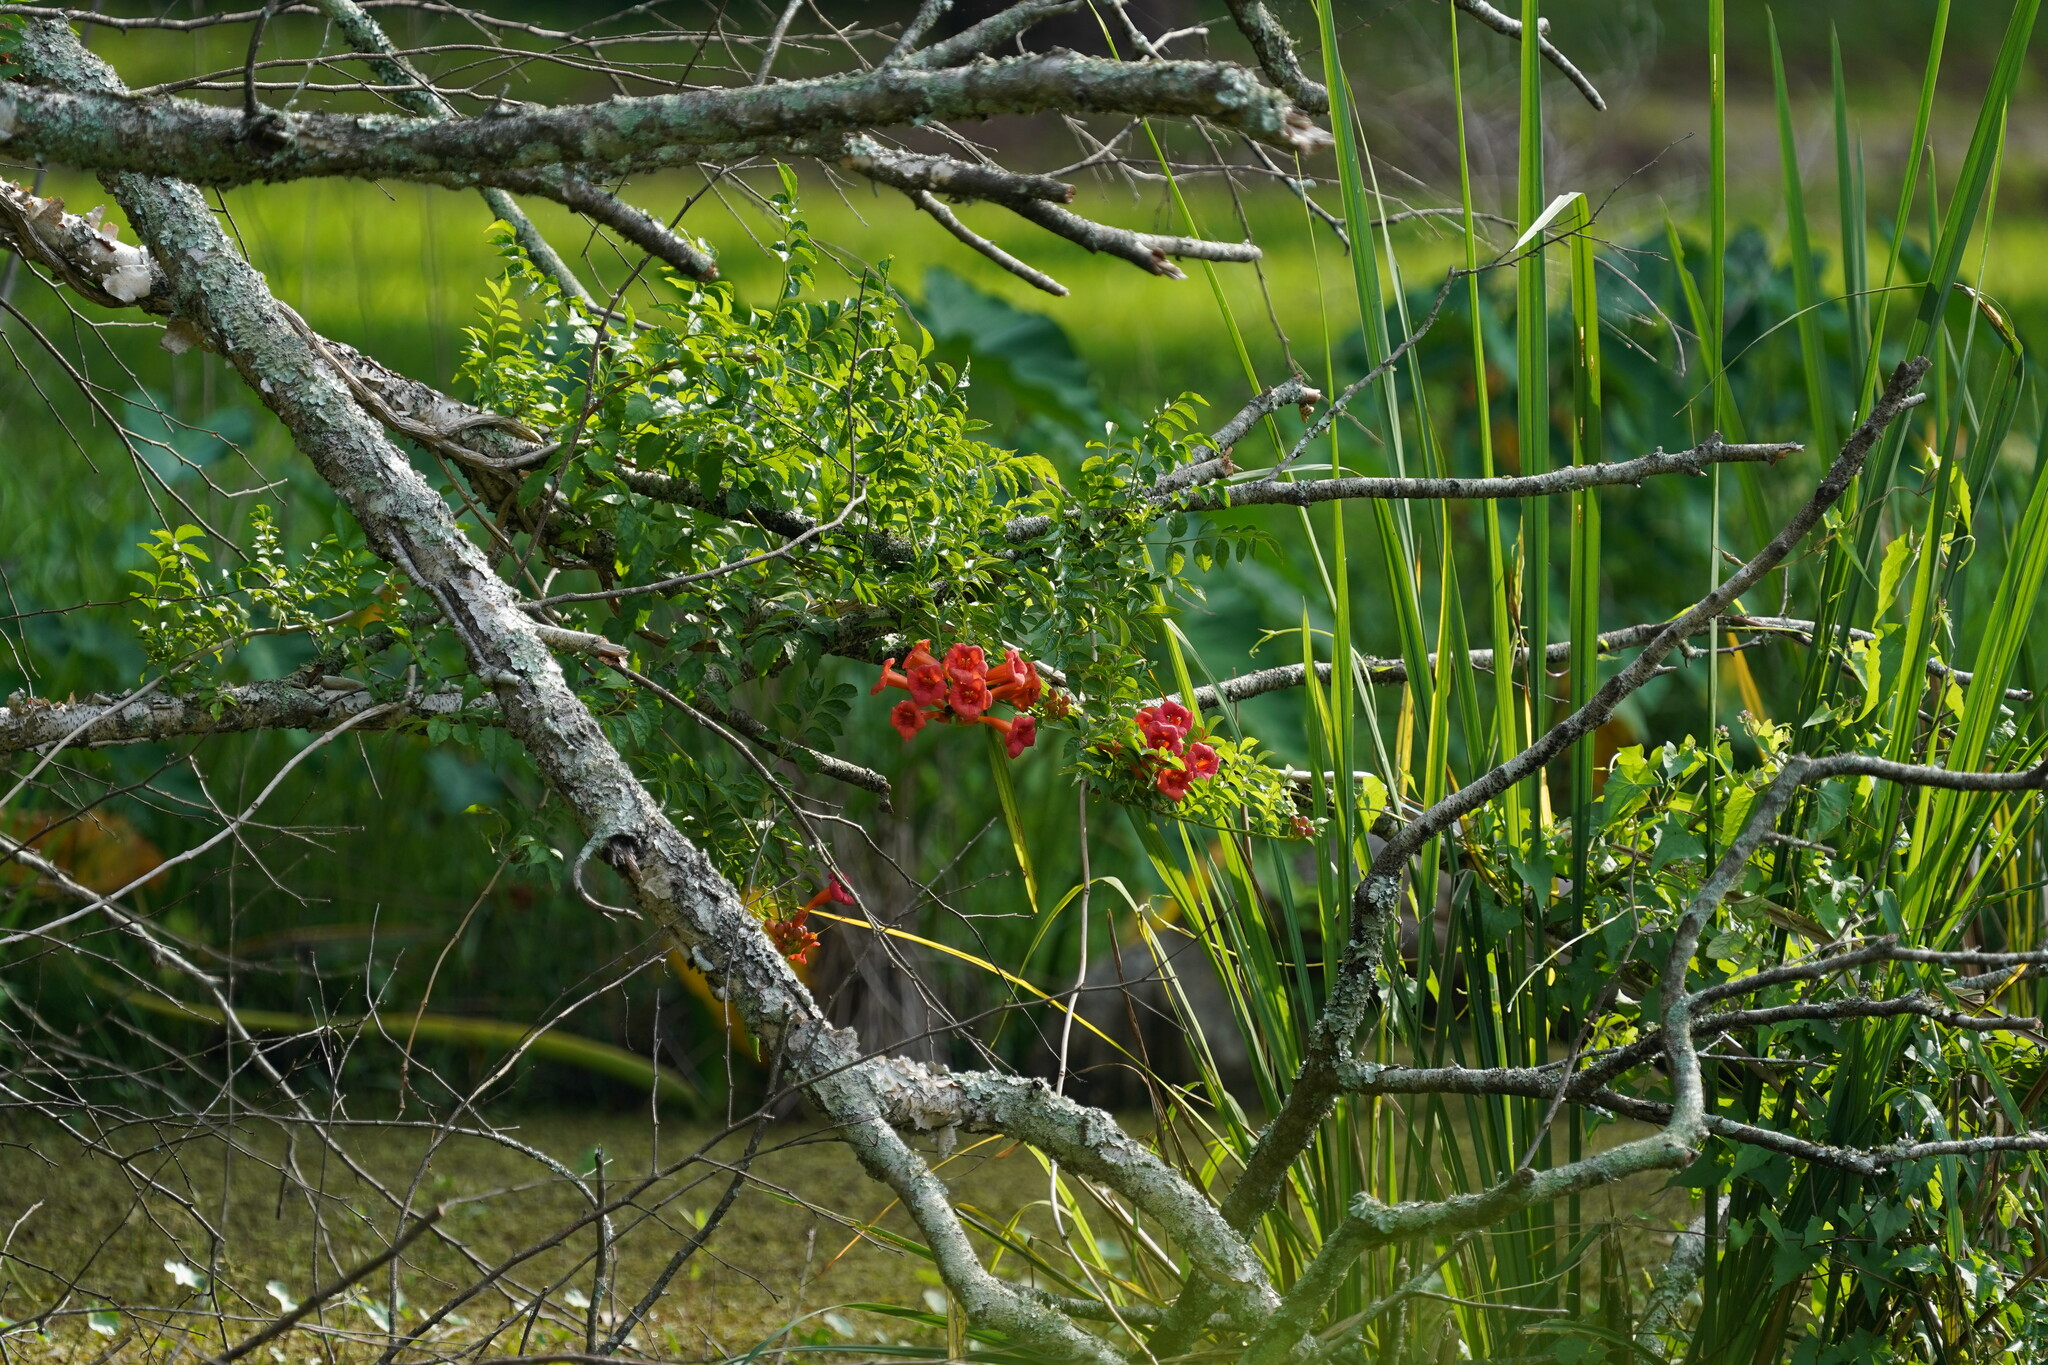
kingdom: Plantae
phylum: Tracheophyta
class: Magnoliopsida
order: Lamiales
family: Bignoniaceae
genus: Campsis
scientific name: Campsis radicans
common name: Trumpet-creeper
